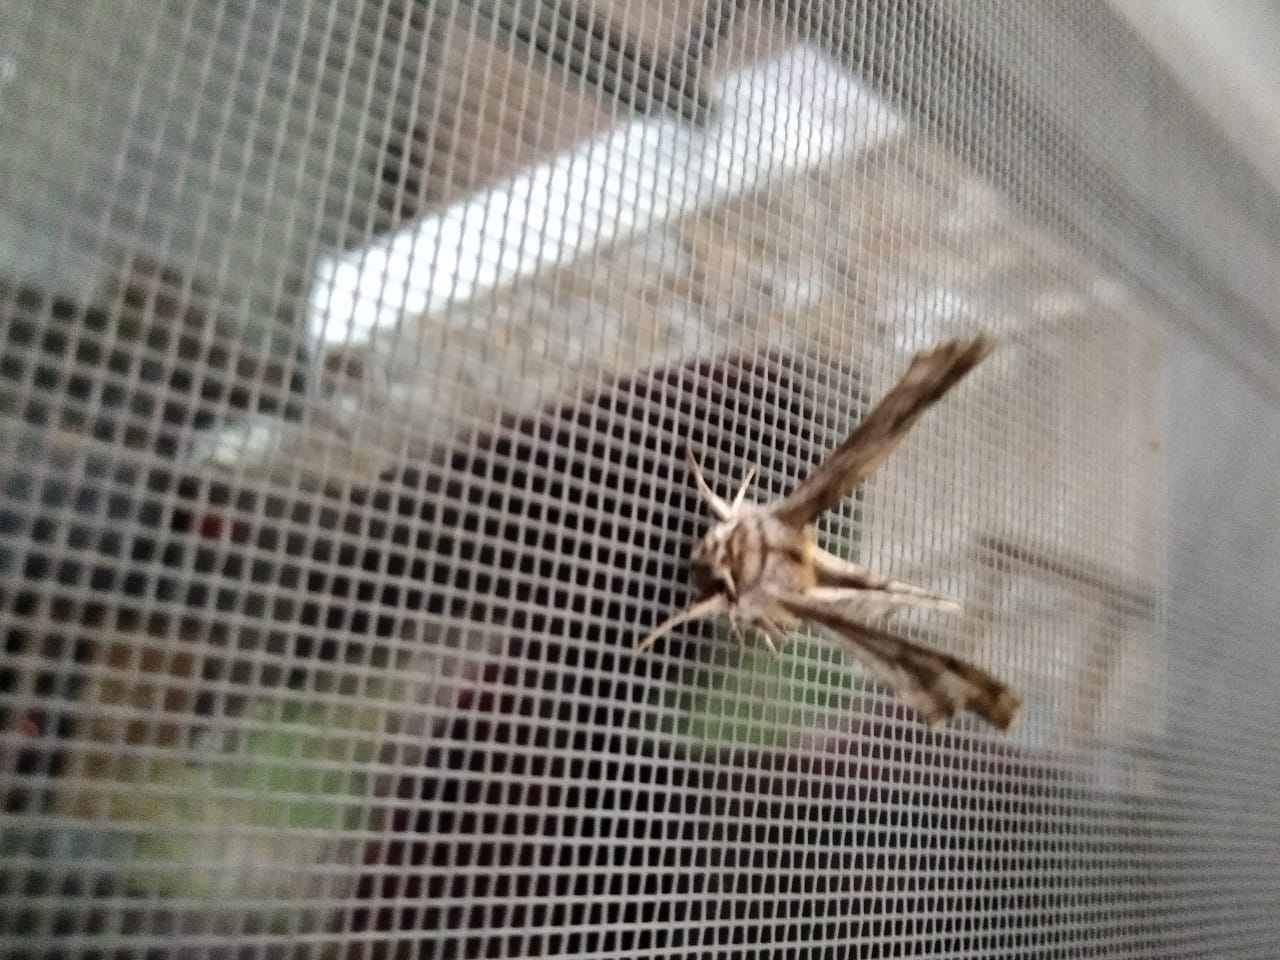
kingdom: Animalia
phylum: Arthropoda
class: Insecta
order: Lepidoptera
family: Geometridae
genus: Apochima
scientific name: Apochima flabellaria
